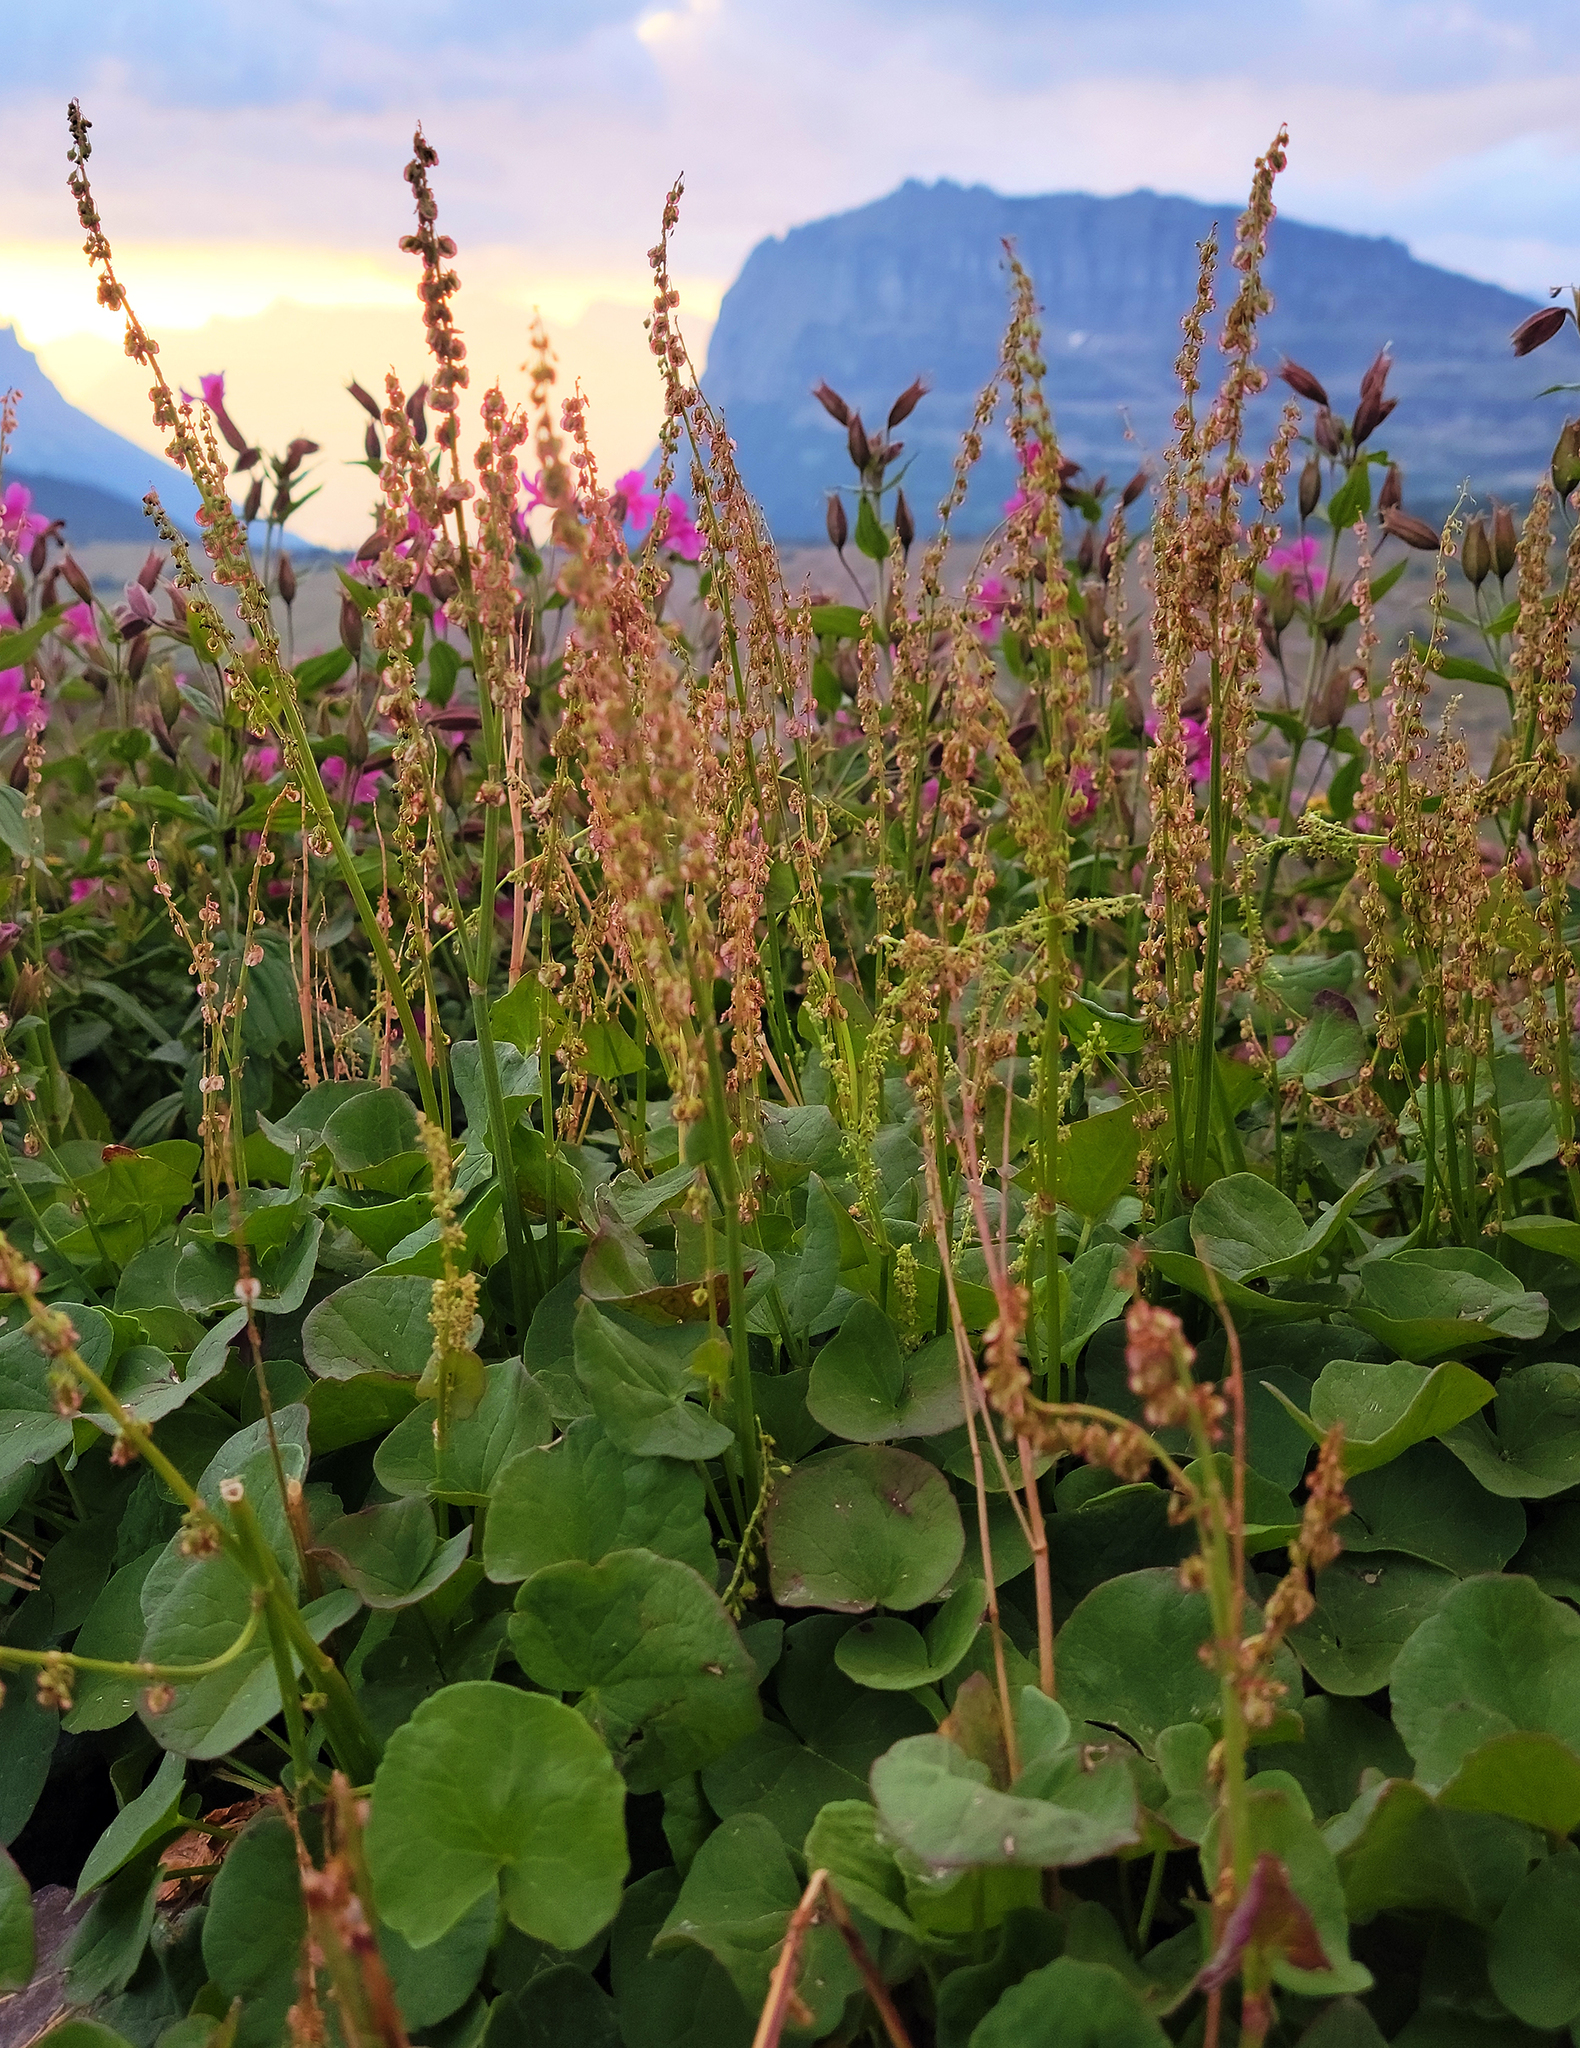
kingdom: Plantae
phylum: Tracheophyta
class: Magnoliopsida
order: Caryophyllales
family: Polygonaceae
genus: Oxyria
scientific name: Oxyria digyna
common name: Alpine mountain-sorrel
